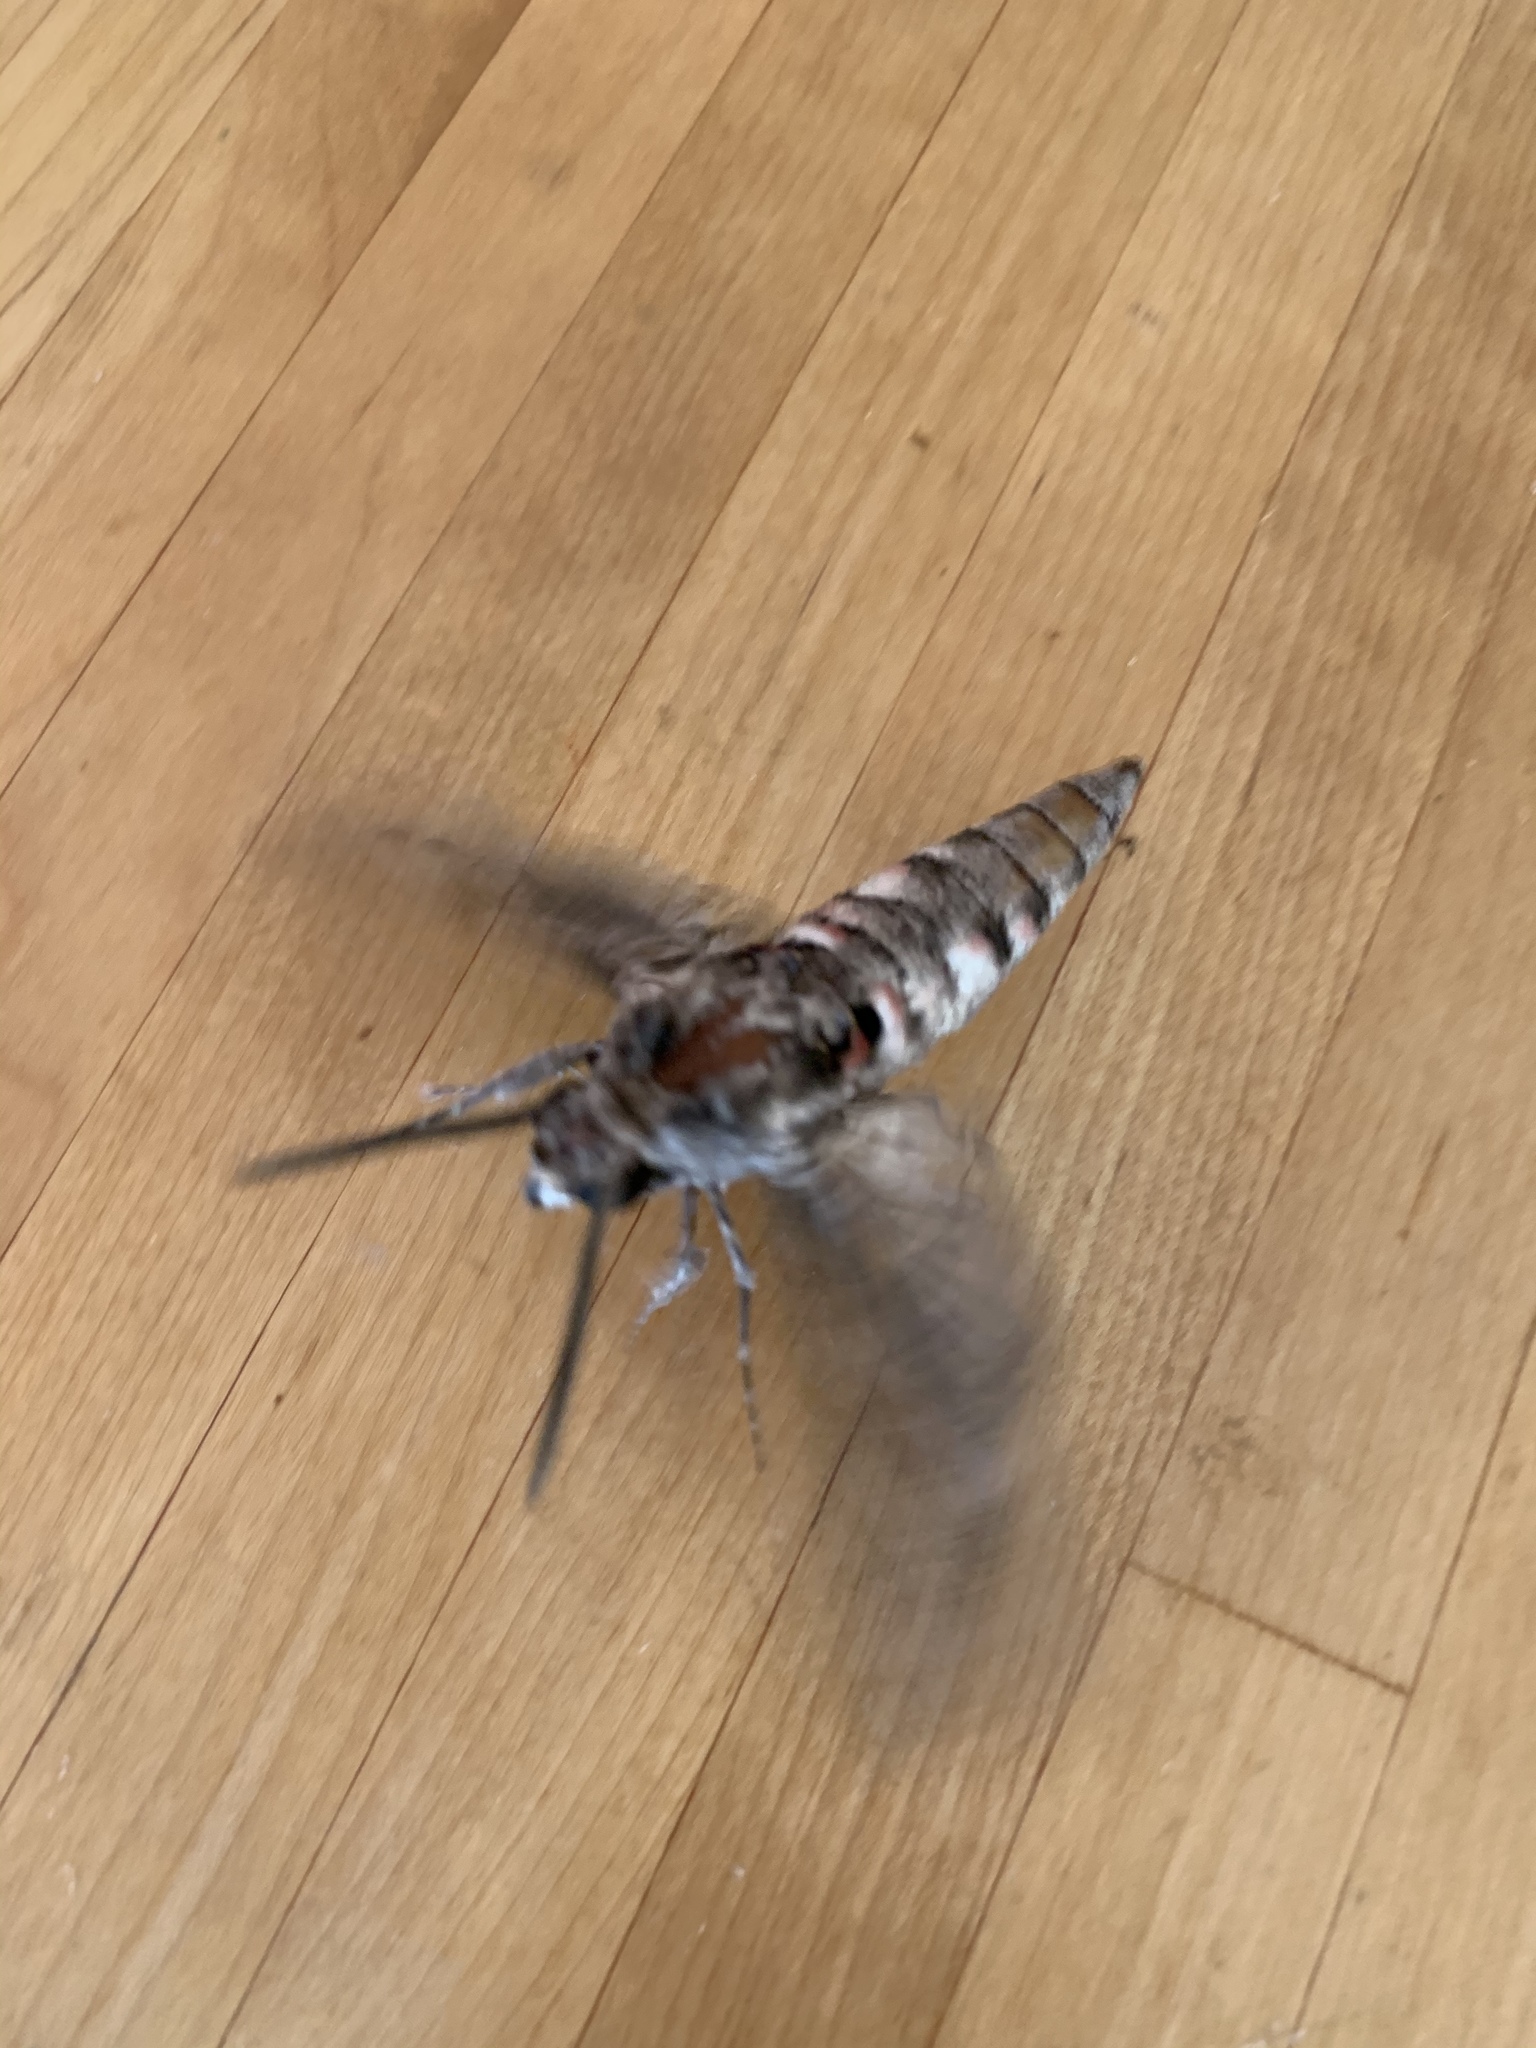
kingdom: Animalia
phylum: Arthropoda
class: Insecta
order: Lepidoptera
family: Sphingidae
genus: Agrius
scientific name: Agrius convolvuli
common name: Convolvulus hawkmoth
